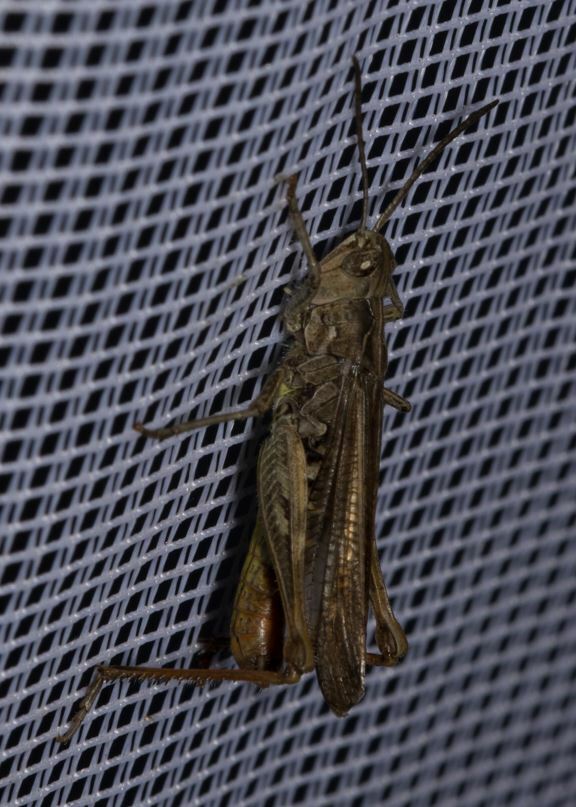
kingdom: Animalia
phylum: Arthropoda
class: Insecta
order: Orthoptera
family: Acrididae
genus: Chorthippus
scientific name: Chorthippus biguttulus
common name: Bow-winged grasshopper
